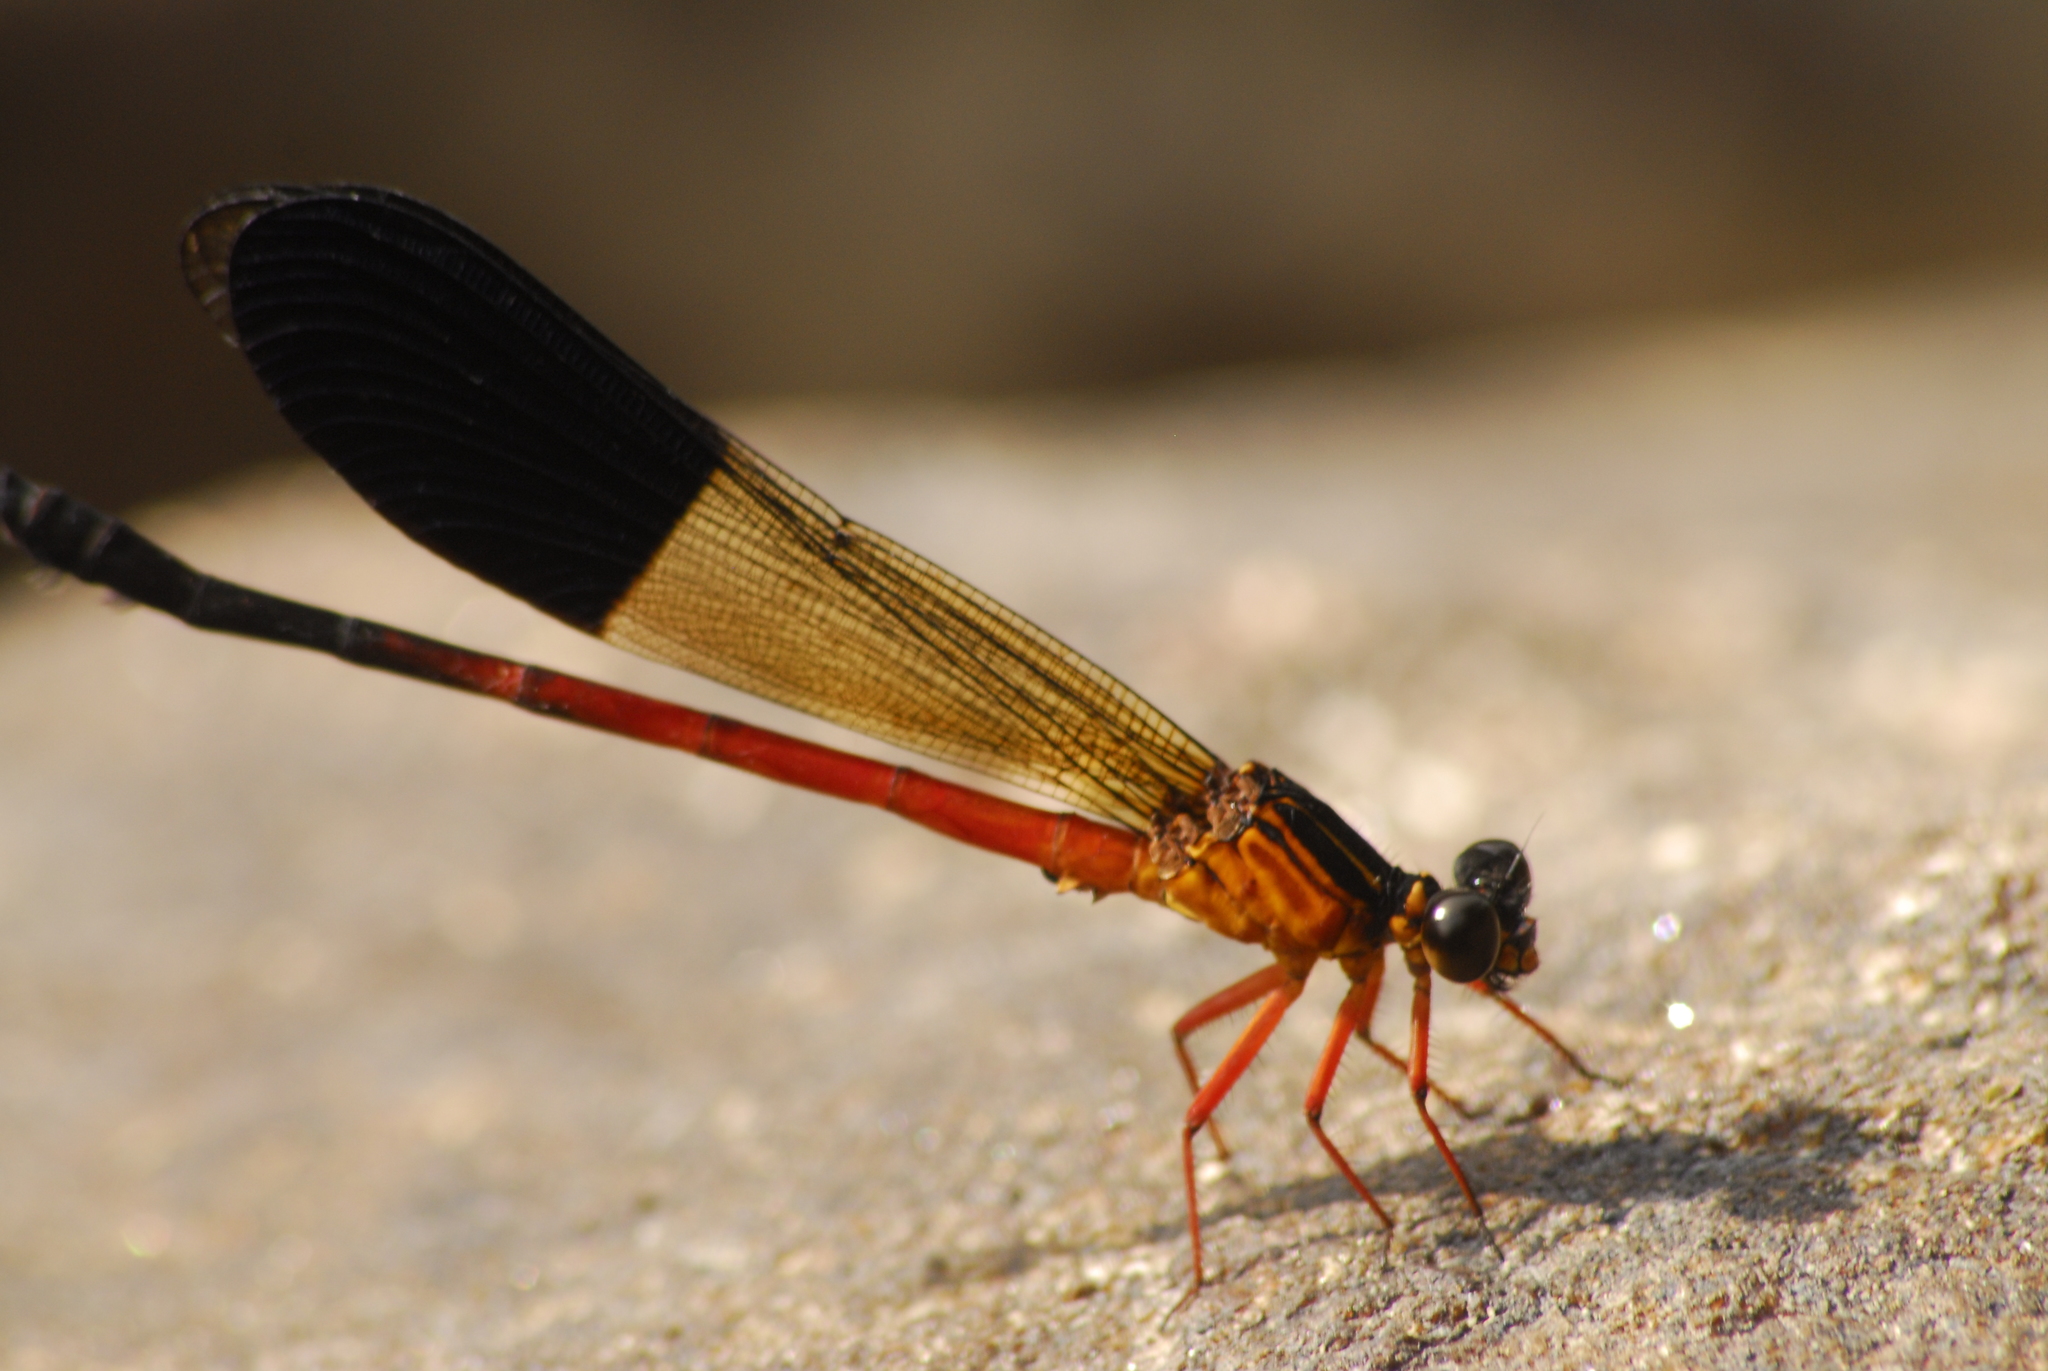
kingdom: Animalia
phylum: Arthropoda
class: Insecta
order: Odonata
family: Euphaeidae
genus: Euphaea
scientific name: Euphaea cardinalis
